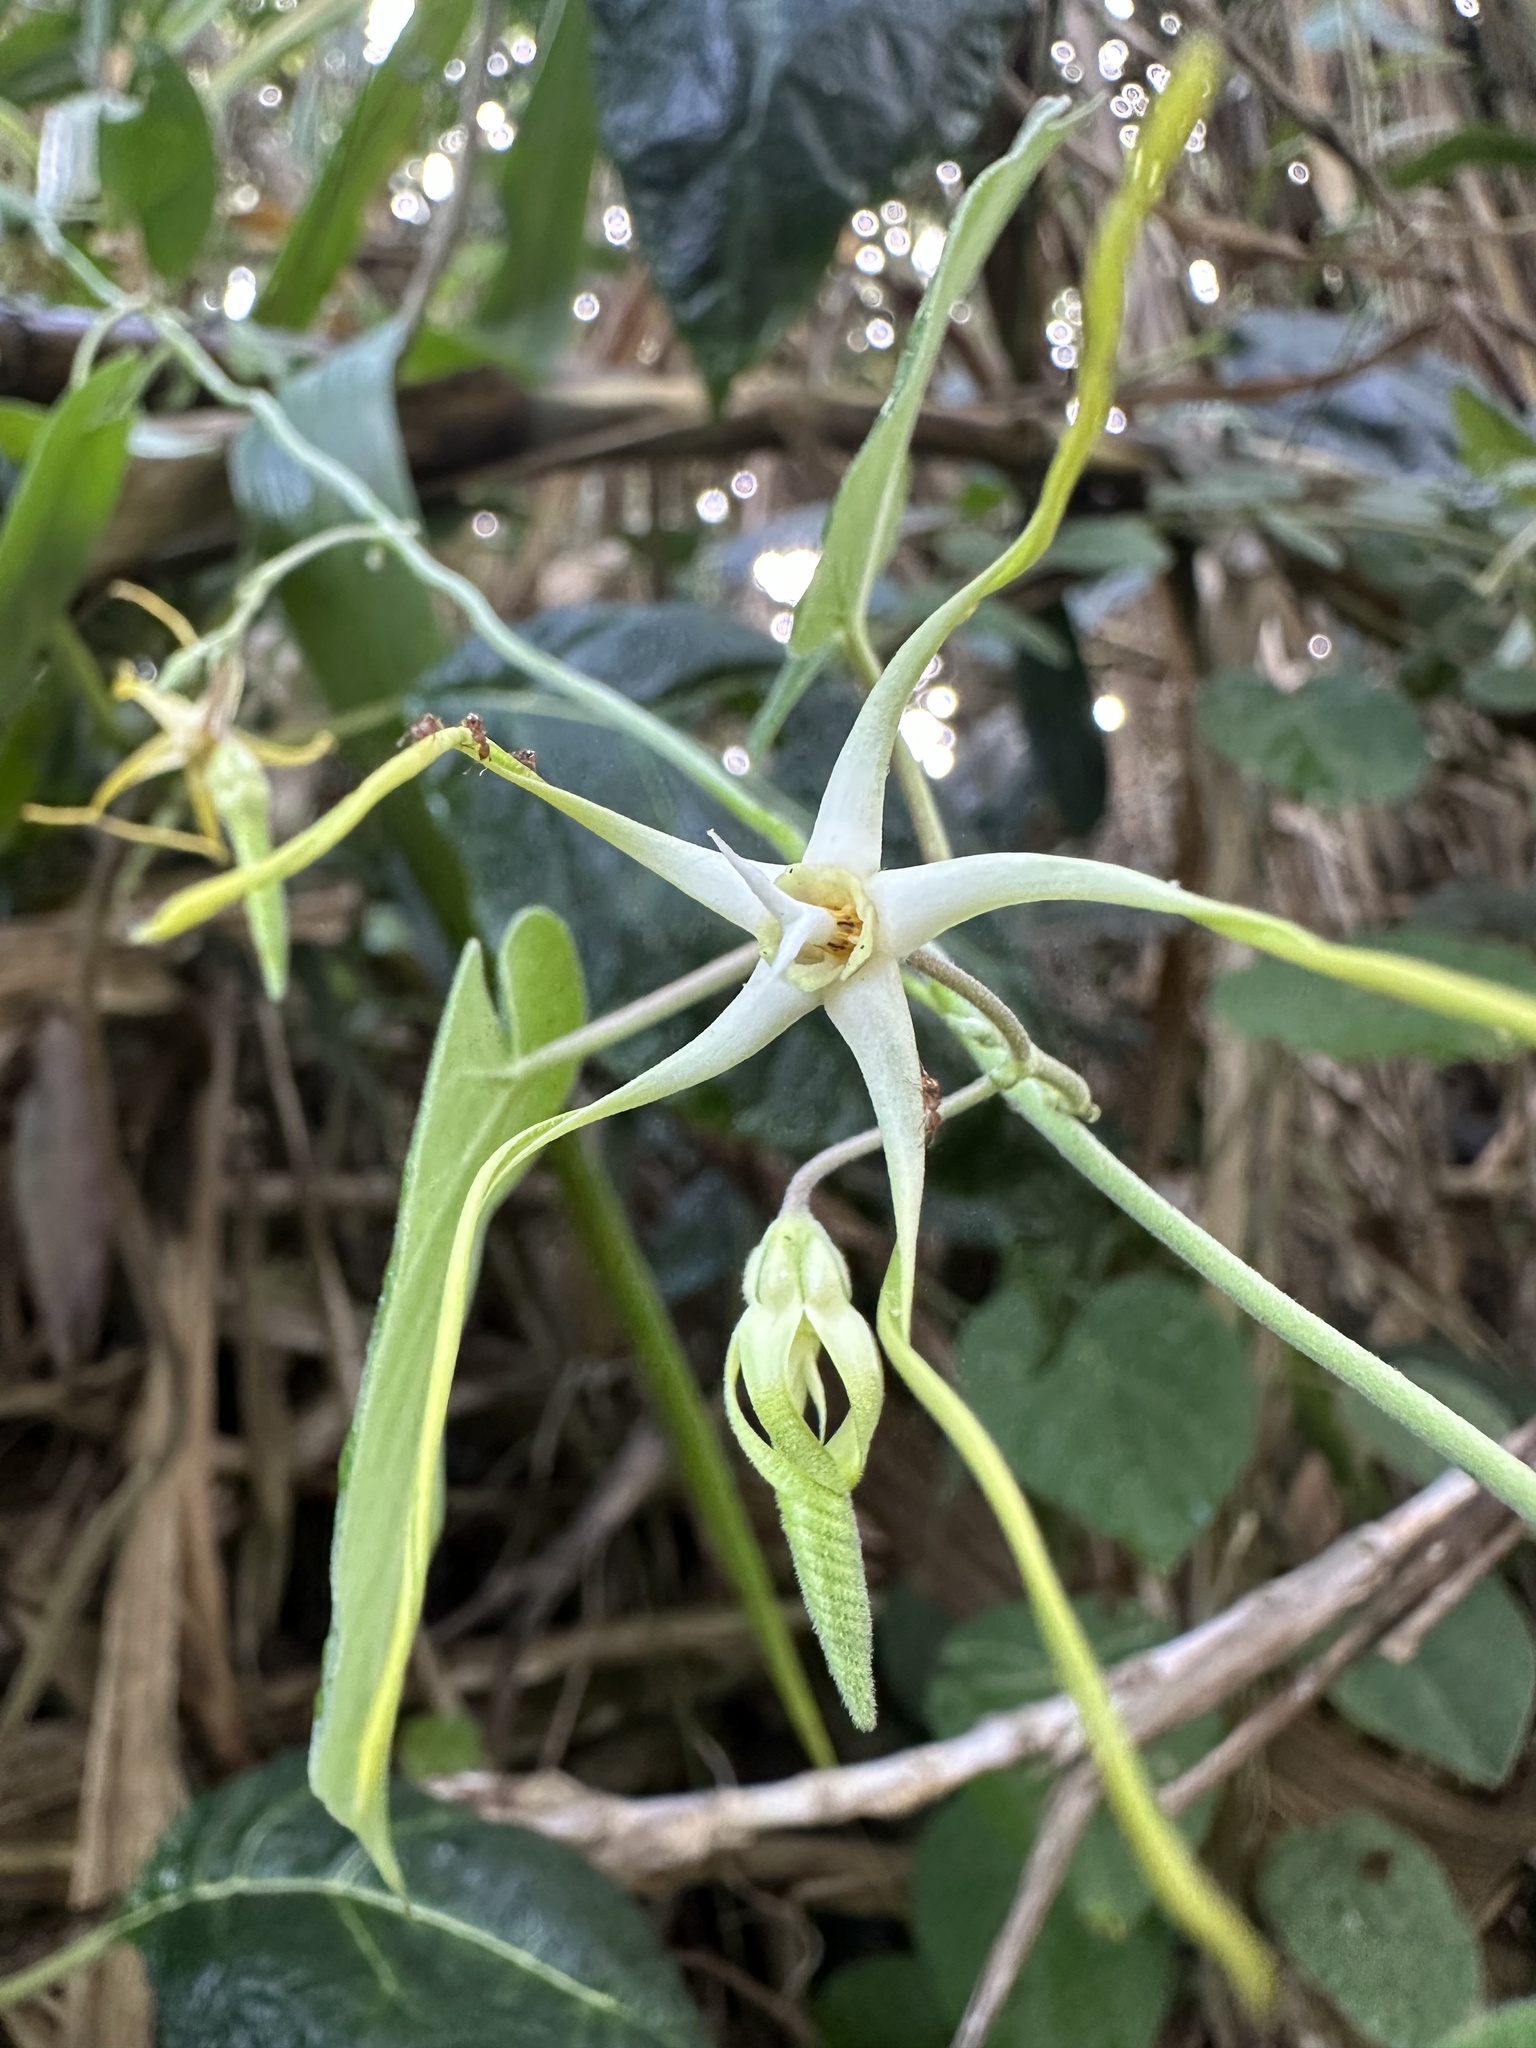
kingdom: Plantae
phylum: Tracheophyta
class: Magnoliopsida
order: Gentianales
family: Apocynaceae
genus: Oxypetalum
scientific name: Oxypetalum cordifolium
